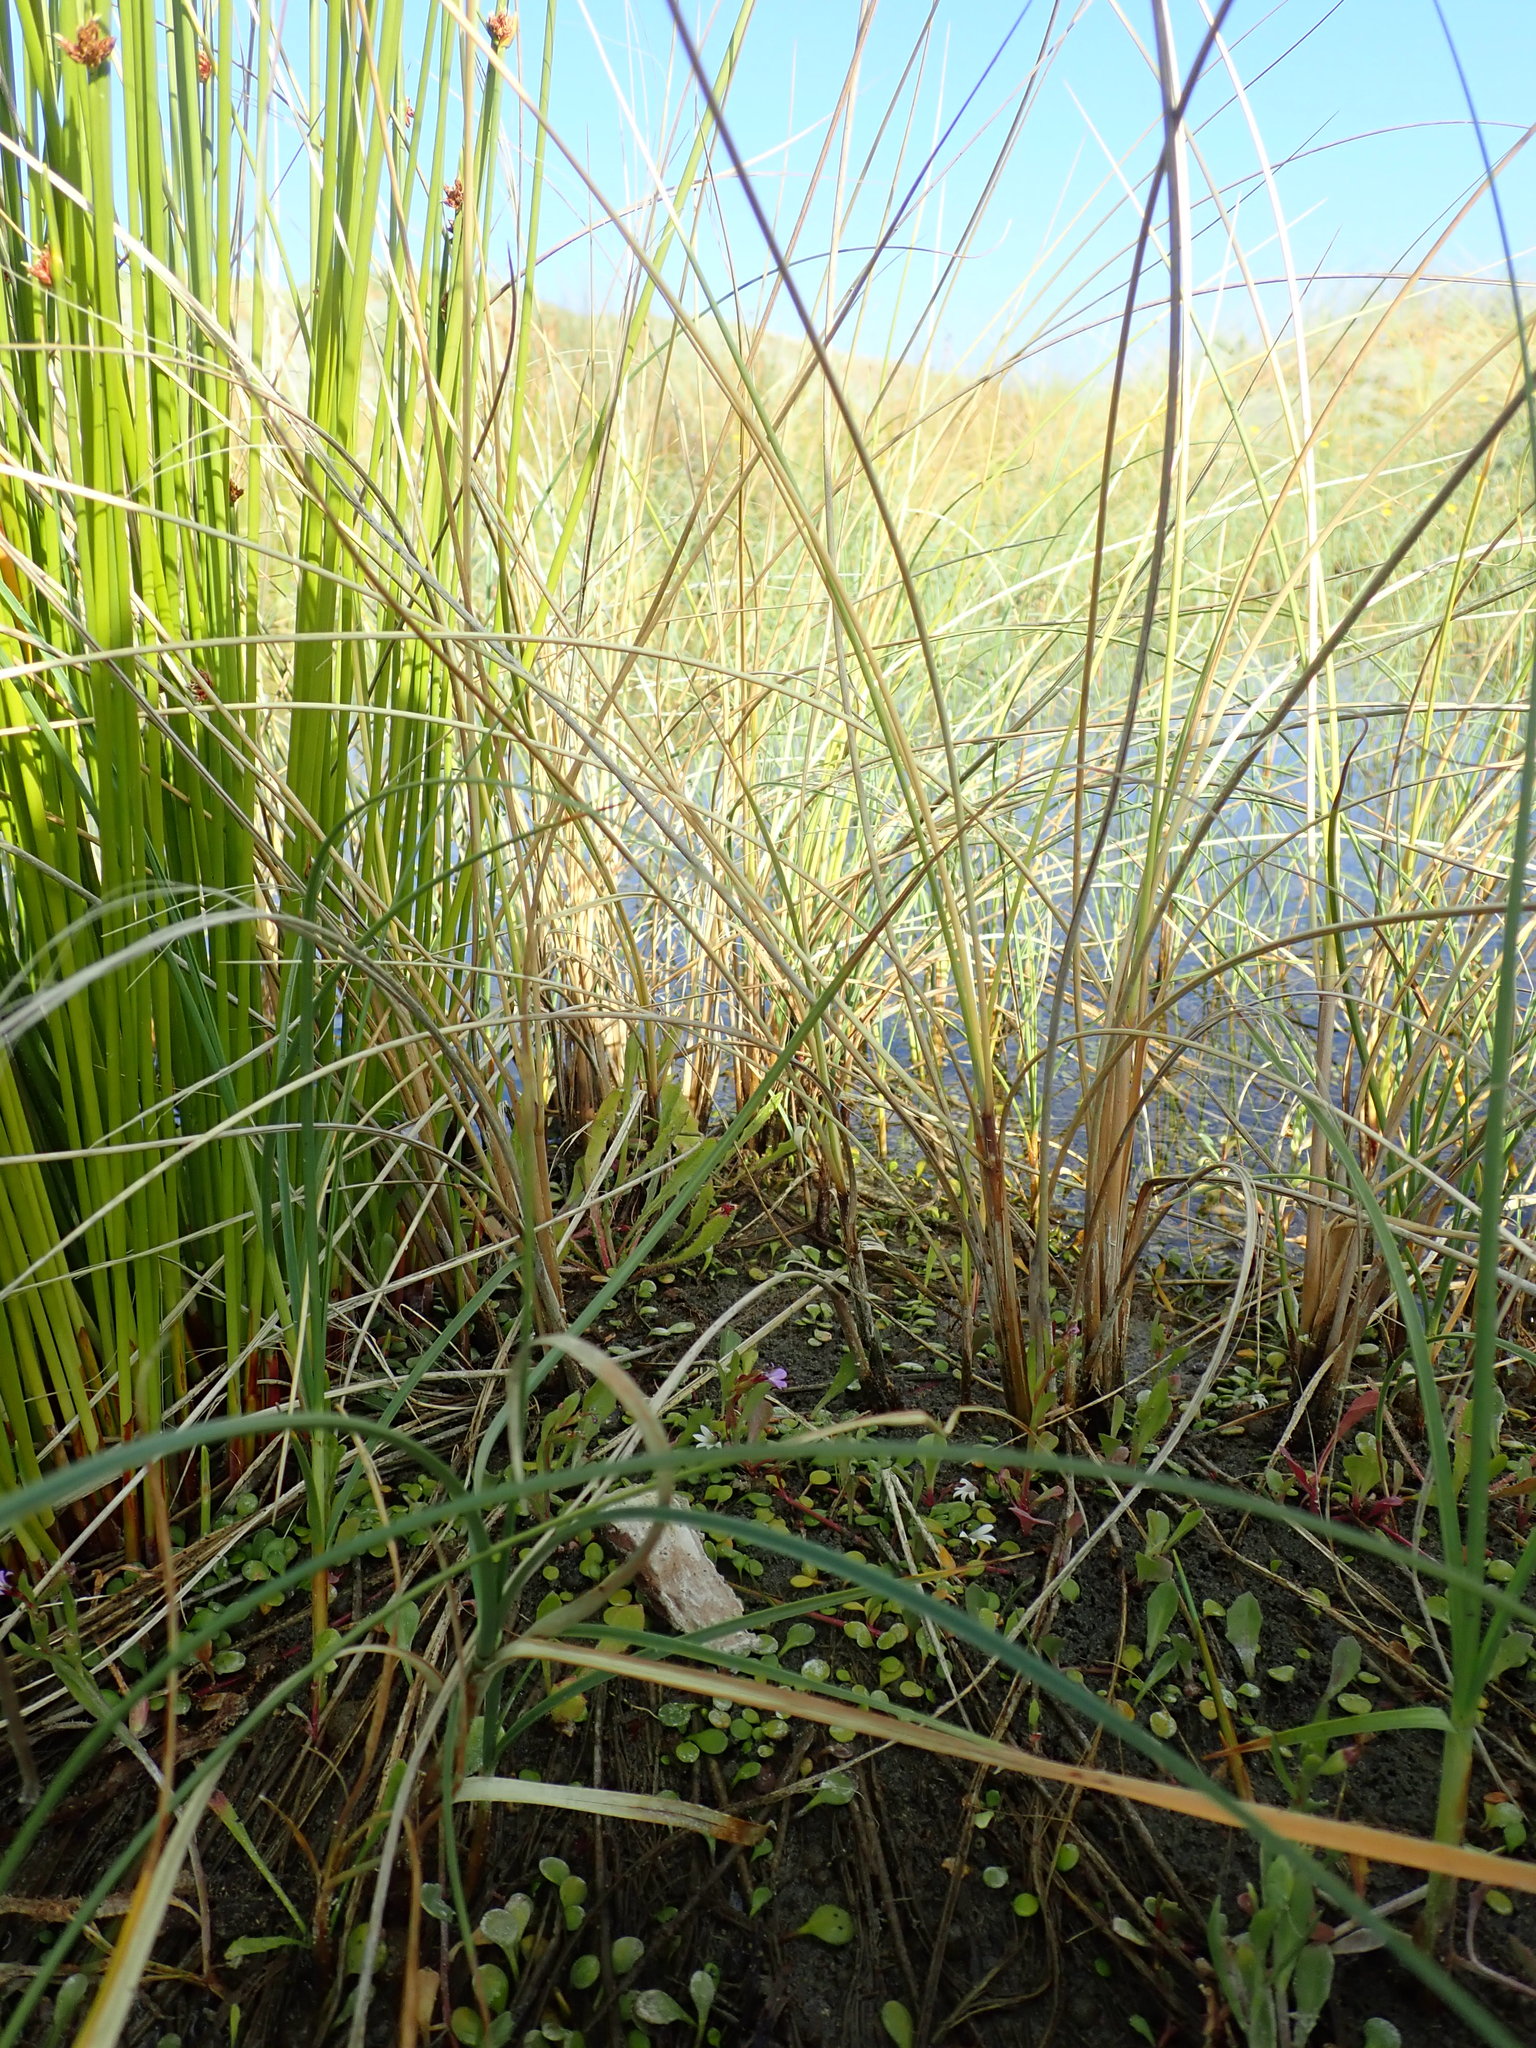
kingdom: Plantae
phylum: Tracheophyta
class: Magnoliopsida
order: Asterales
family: Campanulaceae
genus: Lobelia
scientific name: Lobelia anceps
